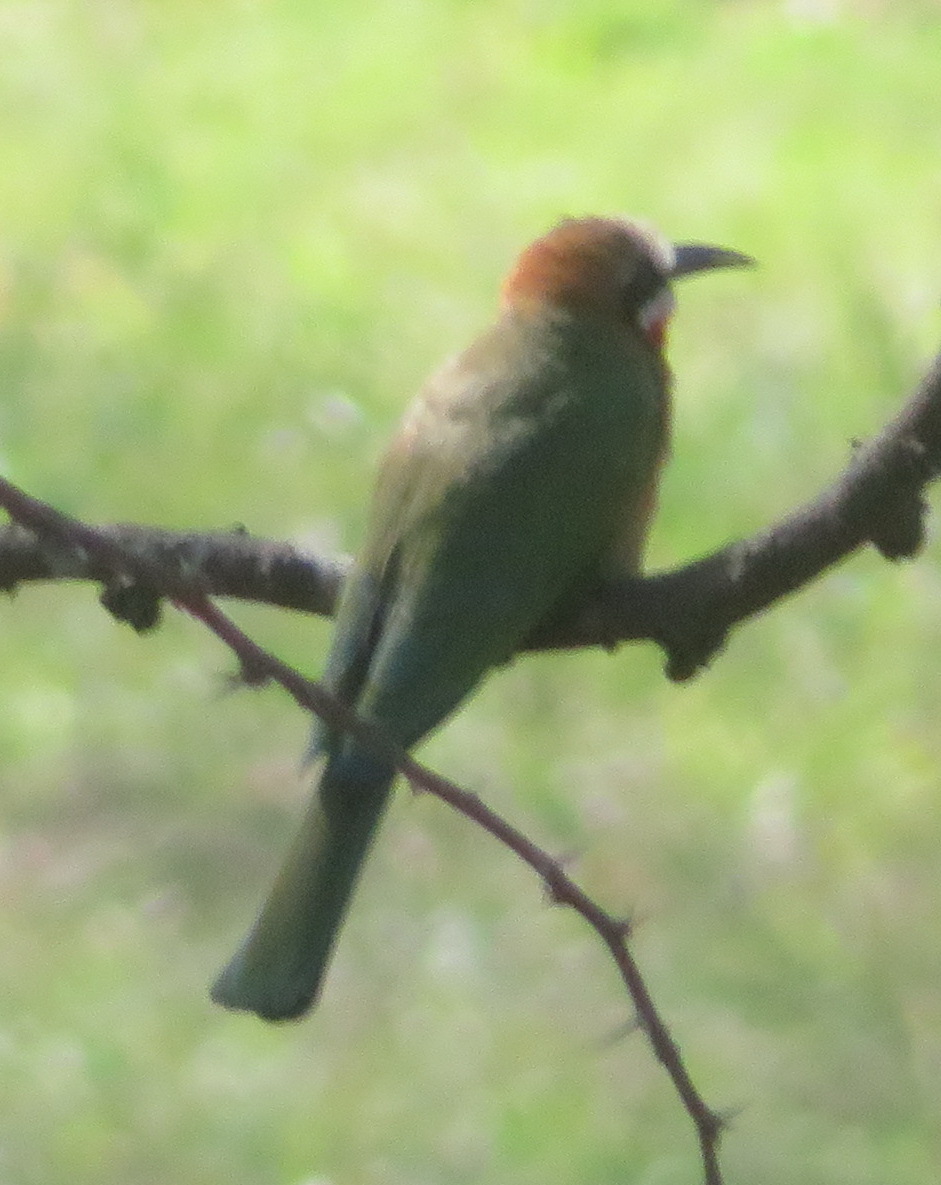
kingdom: Animalia
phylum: Chordata
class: Aves
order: Coraciiformes
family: Meropidae
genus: Merops
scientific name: Merops bullockoides
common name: White-fronted bee-eater
